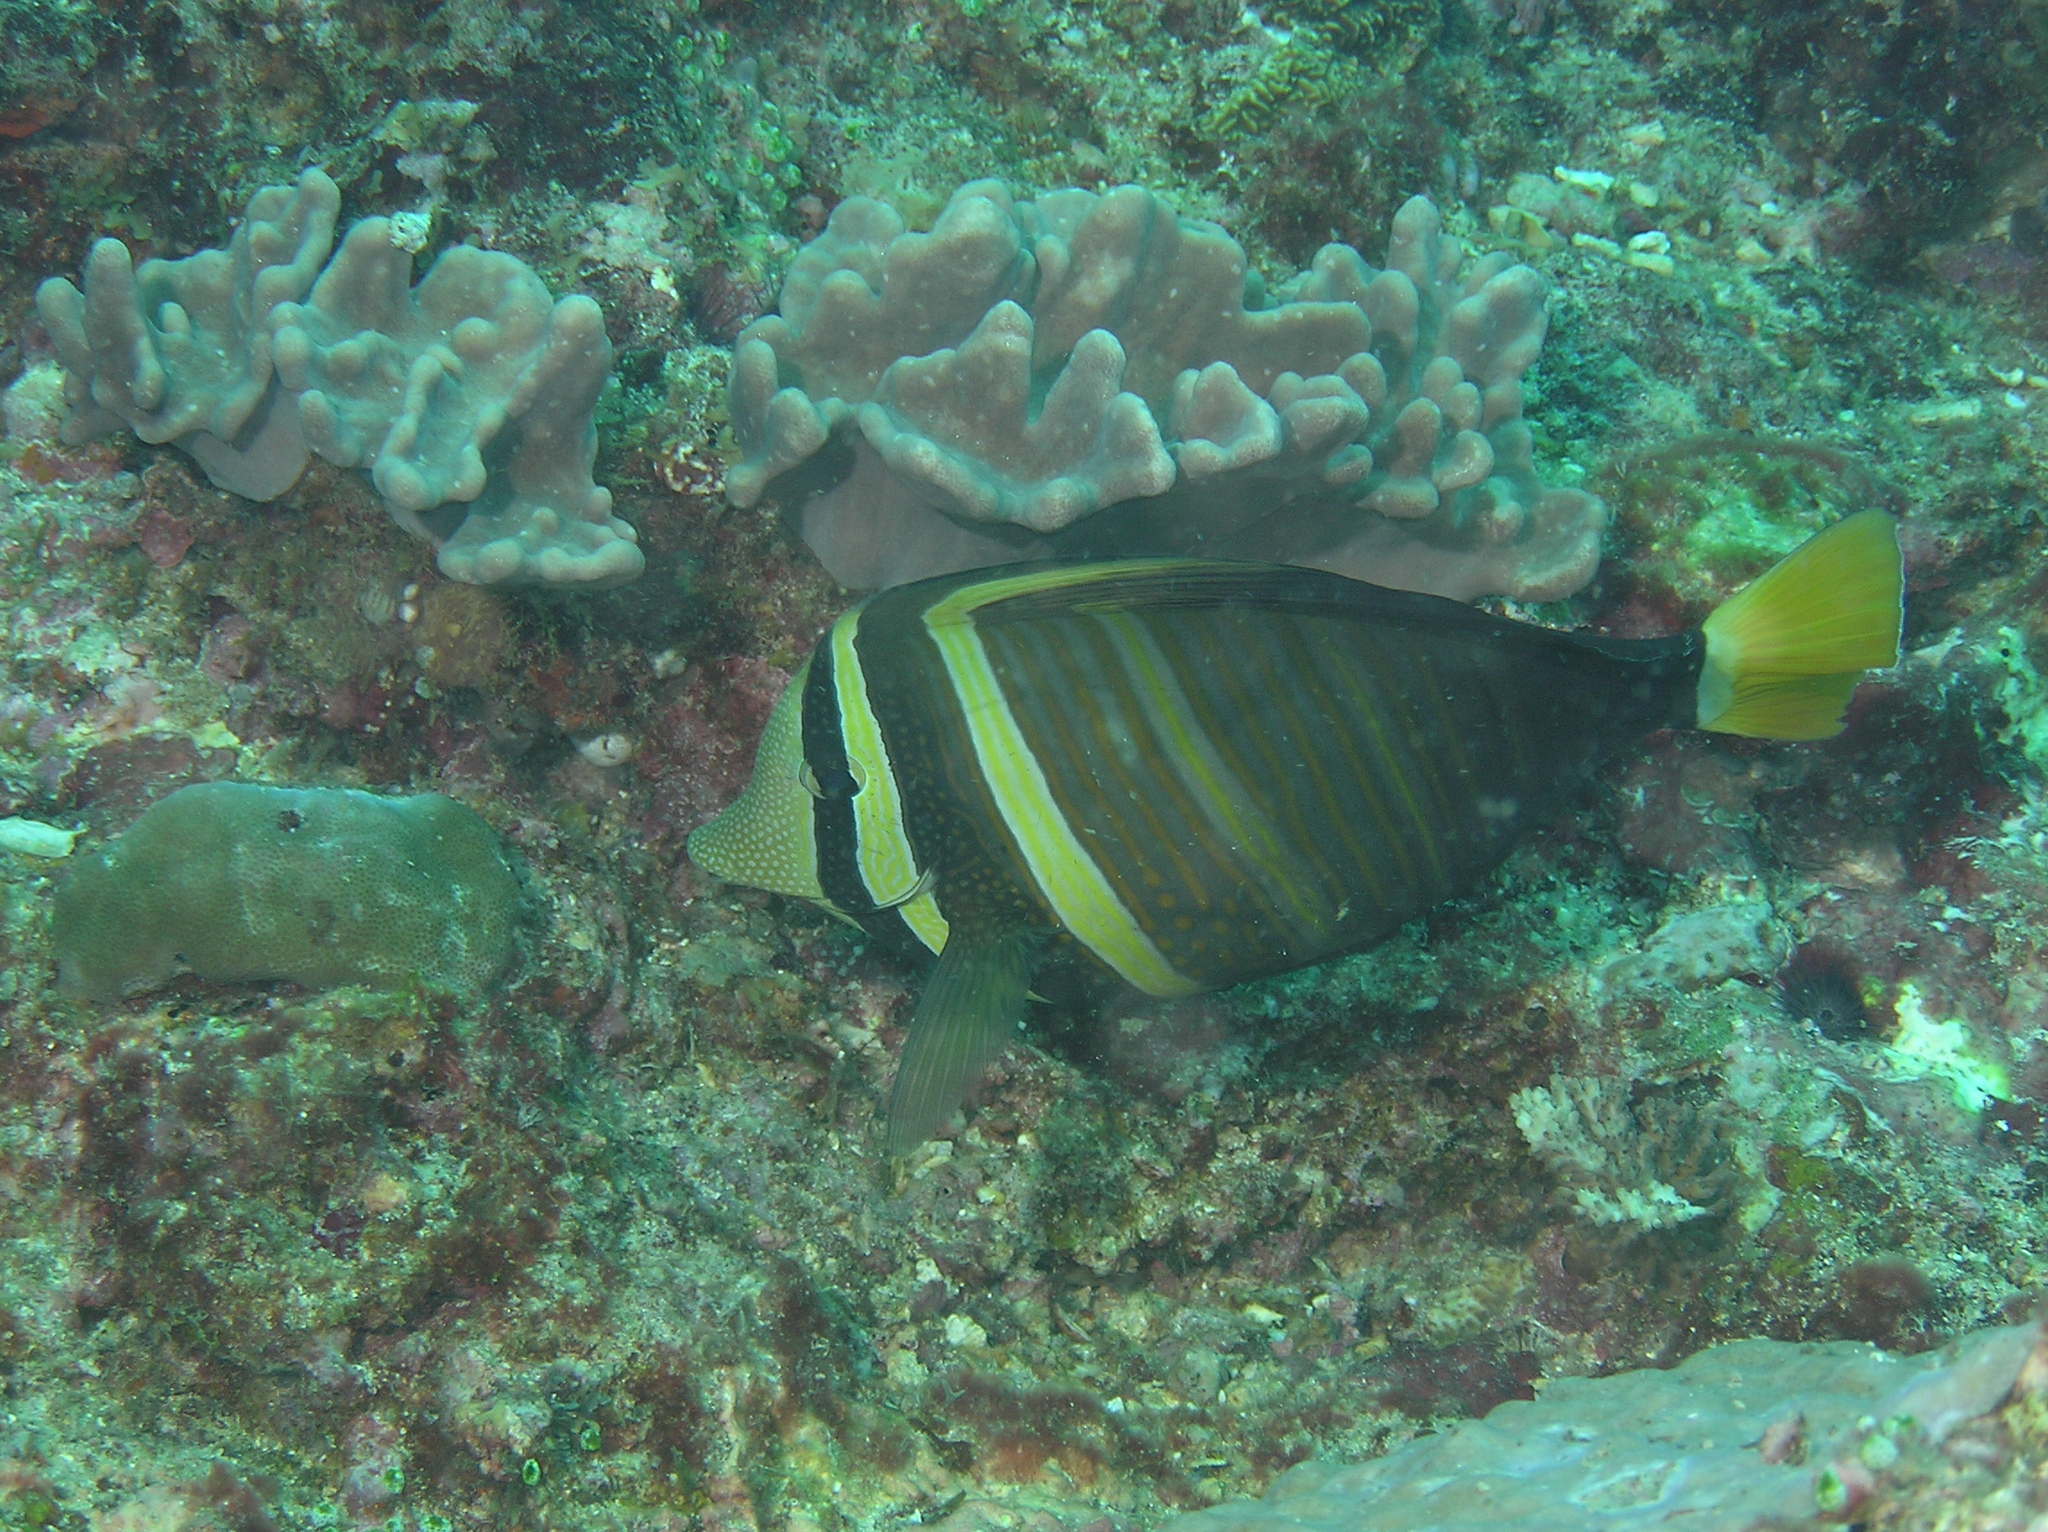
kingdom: Animalia
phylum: Chordata
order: Perciformes
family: Acanthuridae
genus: Zebrasoma
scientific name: Zebrasoma veliferum
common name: Sailfin surgeonfish
